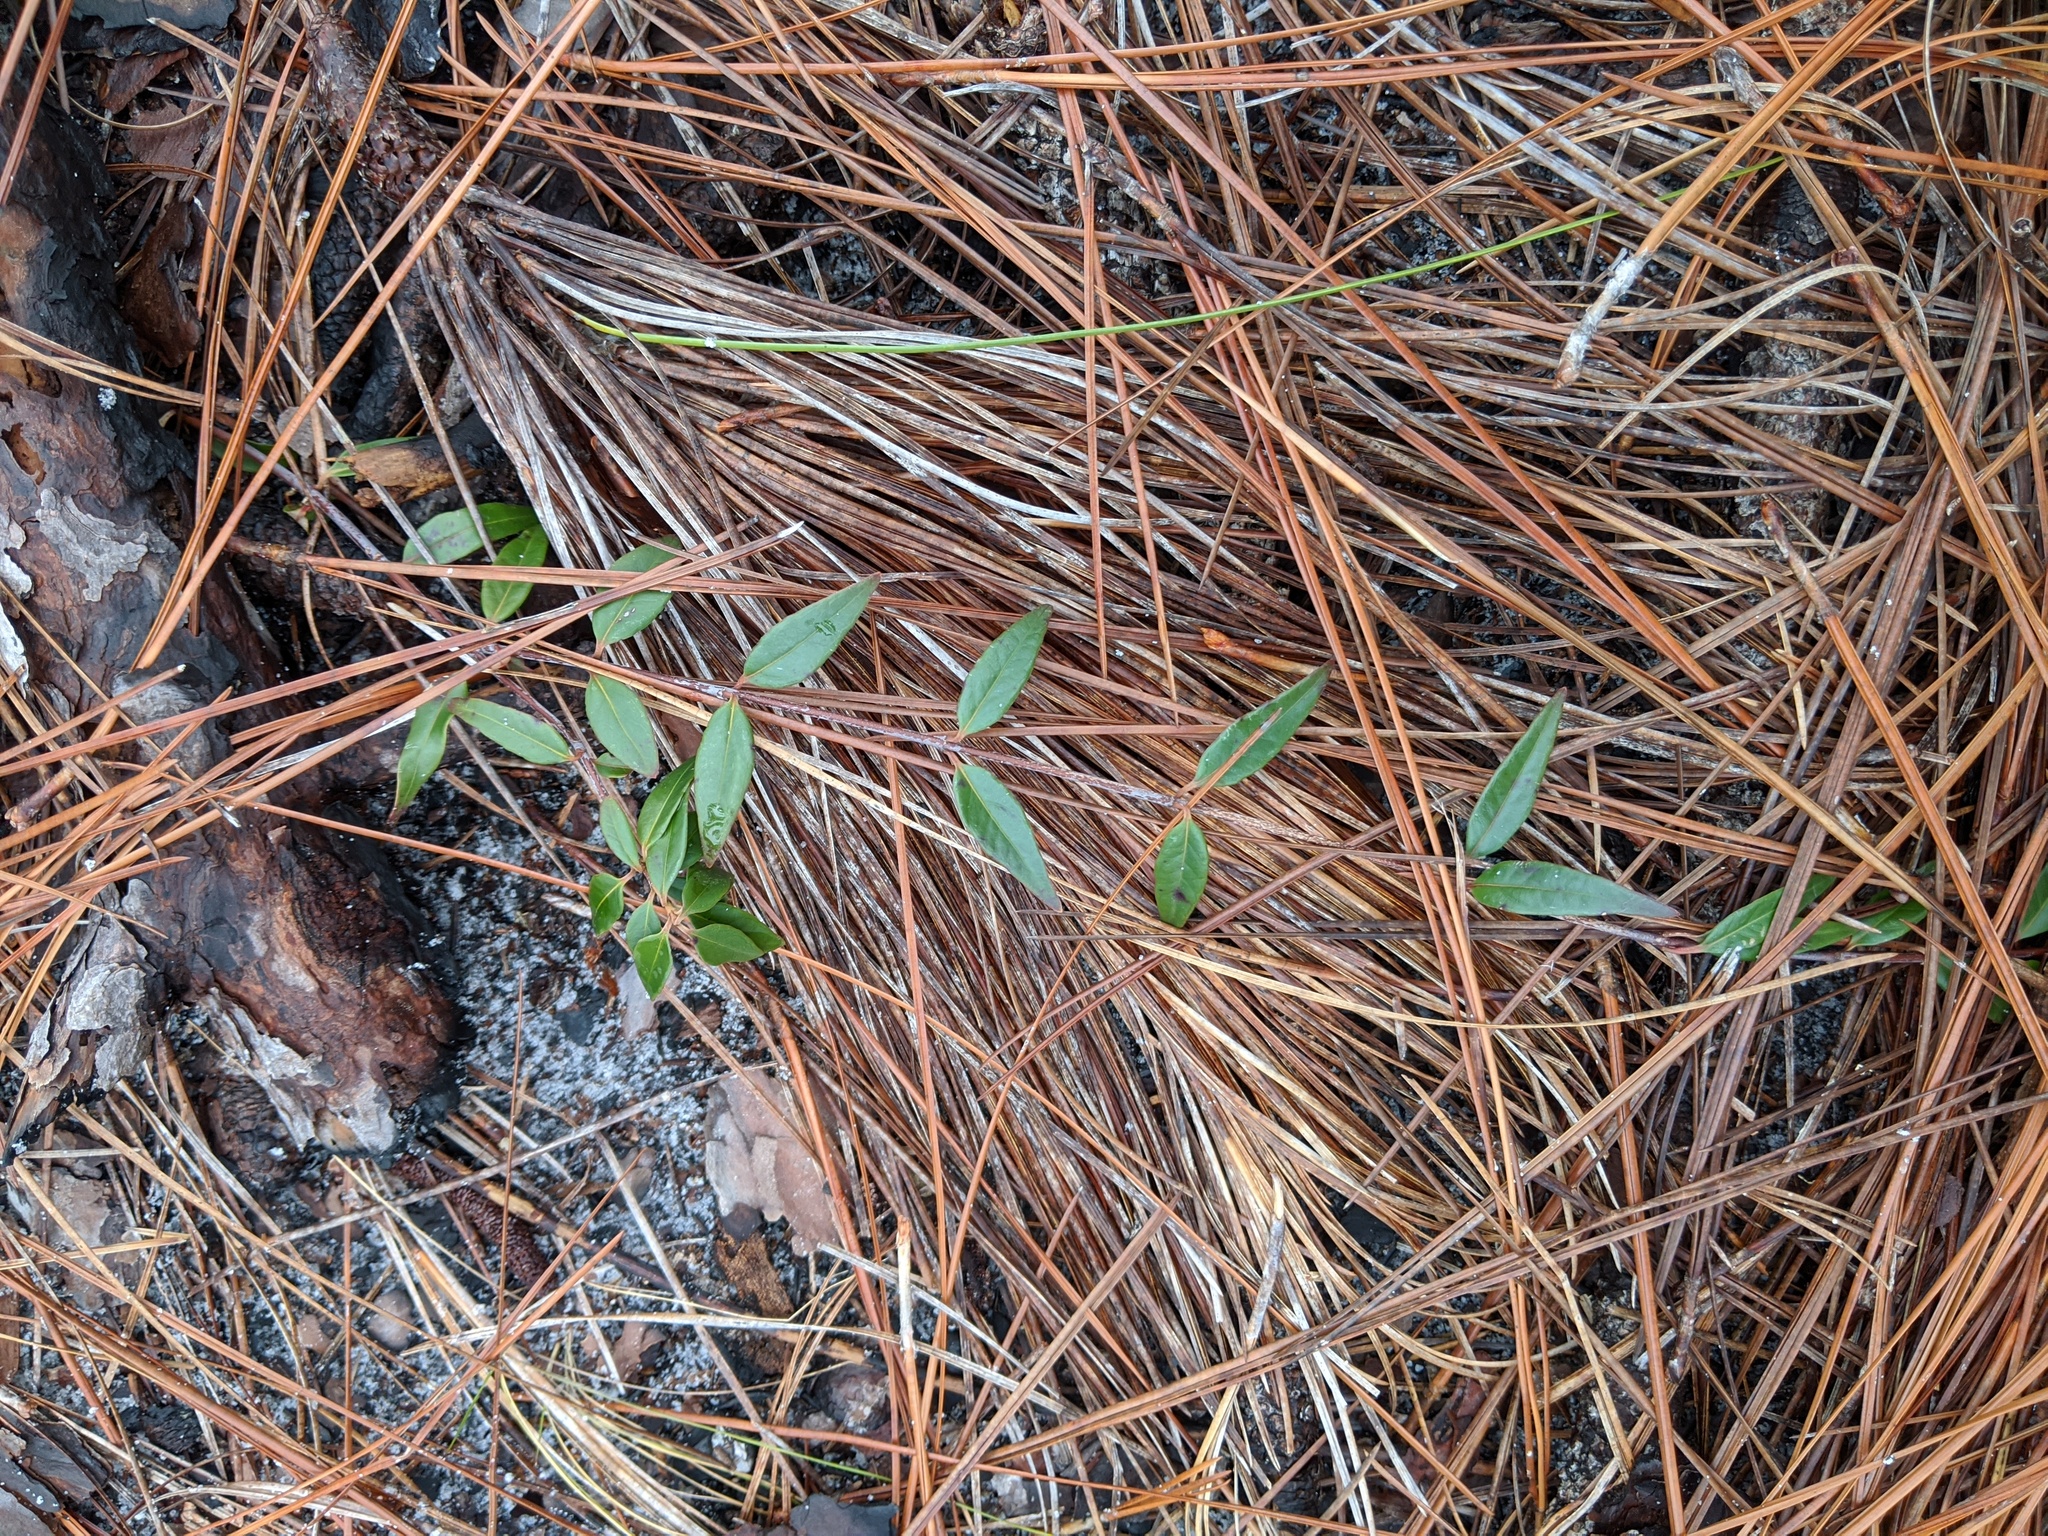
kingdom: Plantae
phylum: Tracheophyta
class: Magnoliopsida
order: Gentianales
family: Gelsemiaceae
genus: Gelsemium
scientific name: Gelsemium sempervirens
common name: Carolina-jasmine
